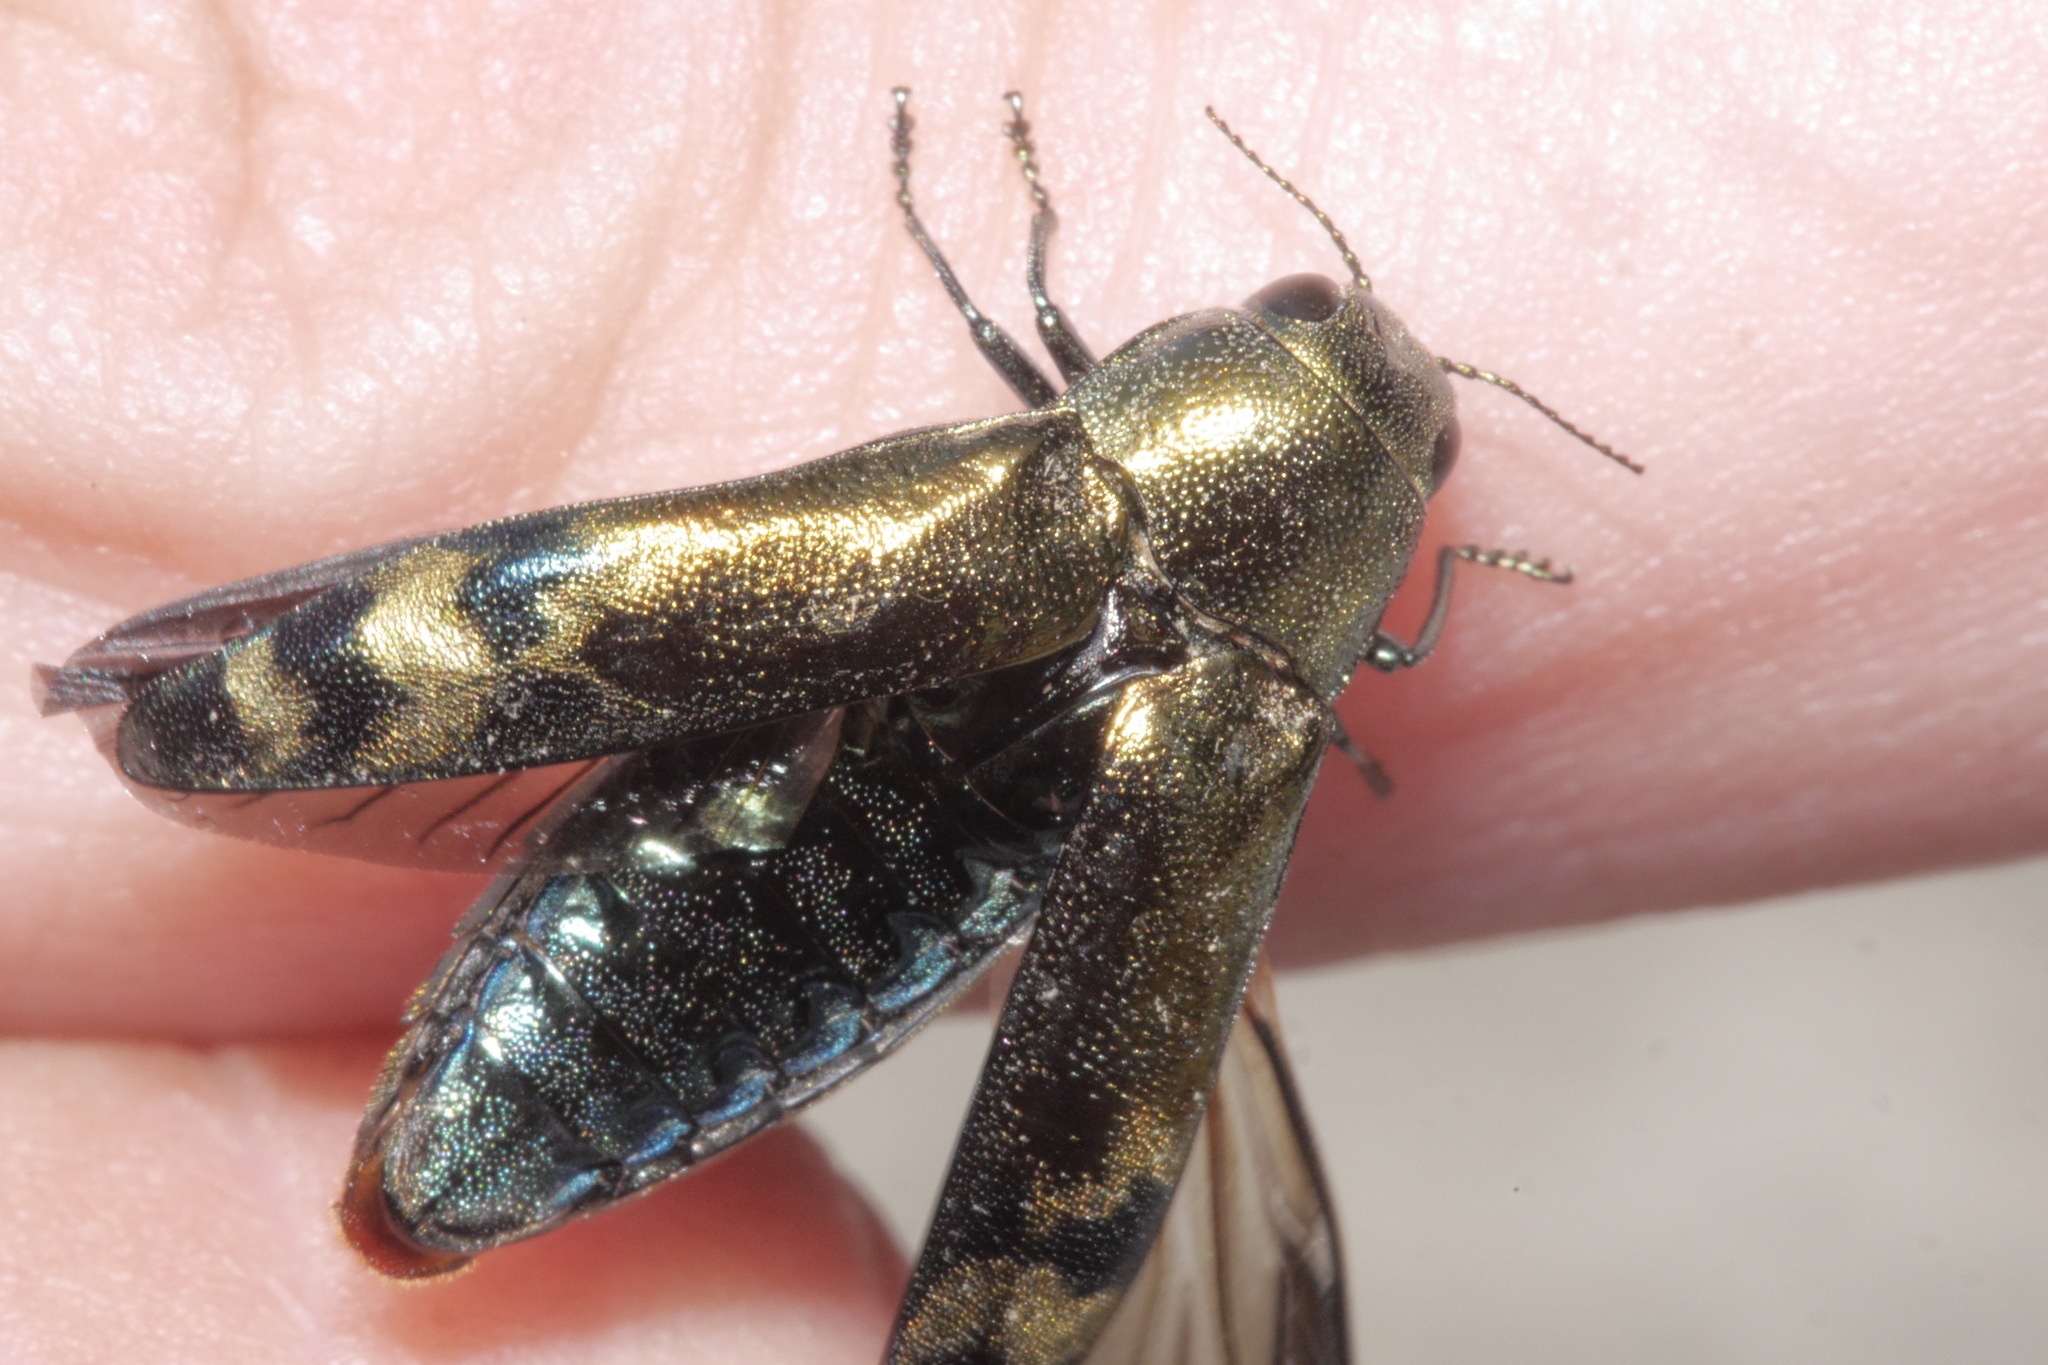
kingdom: Animalia
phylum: Arthropoda
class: Insecta
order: Coleoptera
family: Buprestidae
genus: Coraebus
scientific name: Coraebus fasciatus
